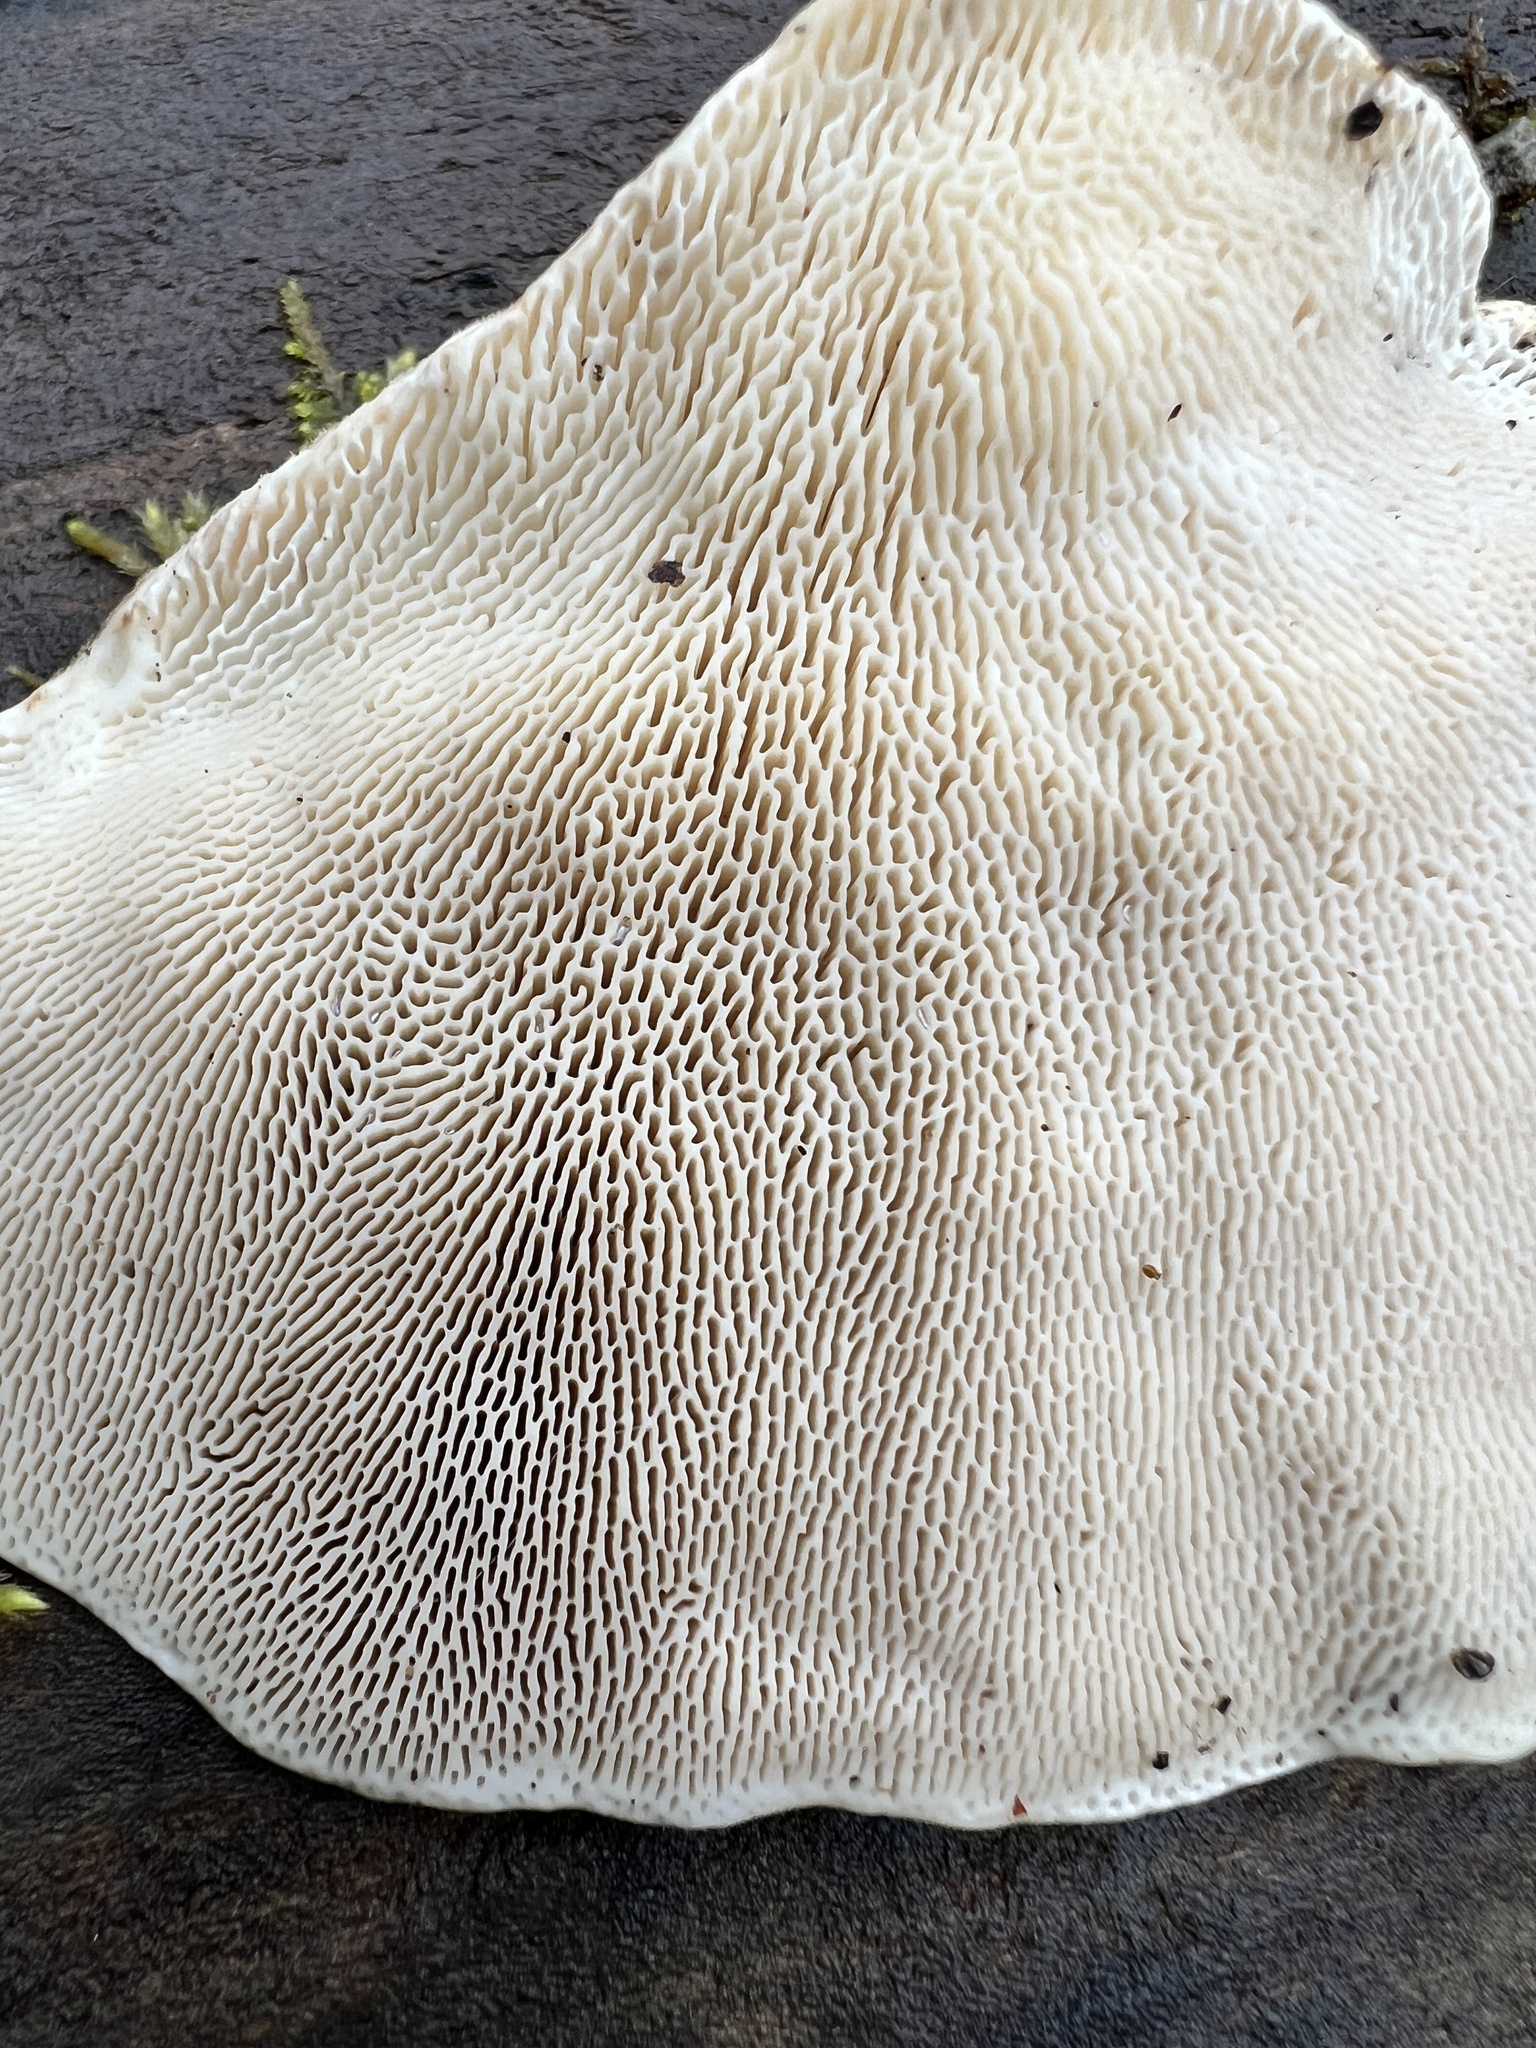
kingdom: Fungi
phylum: Basidiomycota
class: Agaricomycetes
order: Polyporales
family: Polyporaceae
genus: Trametes
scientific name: Trametes gibbosa
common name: Lumpy bracket
